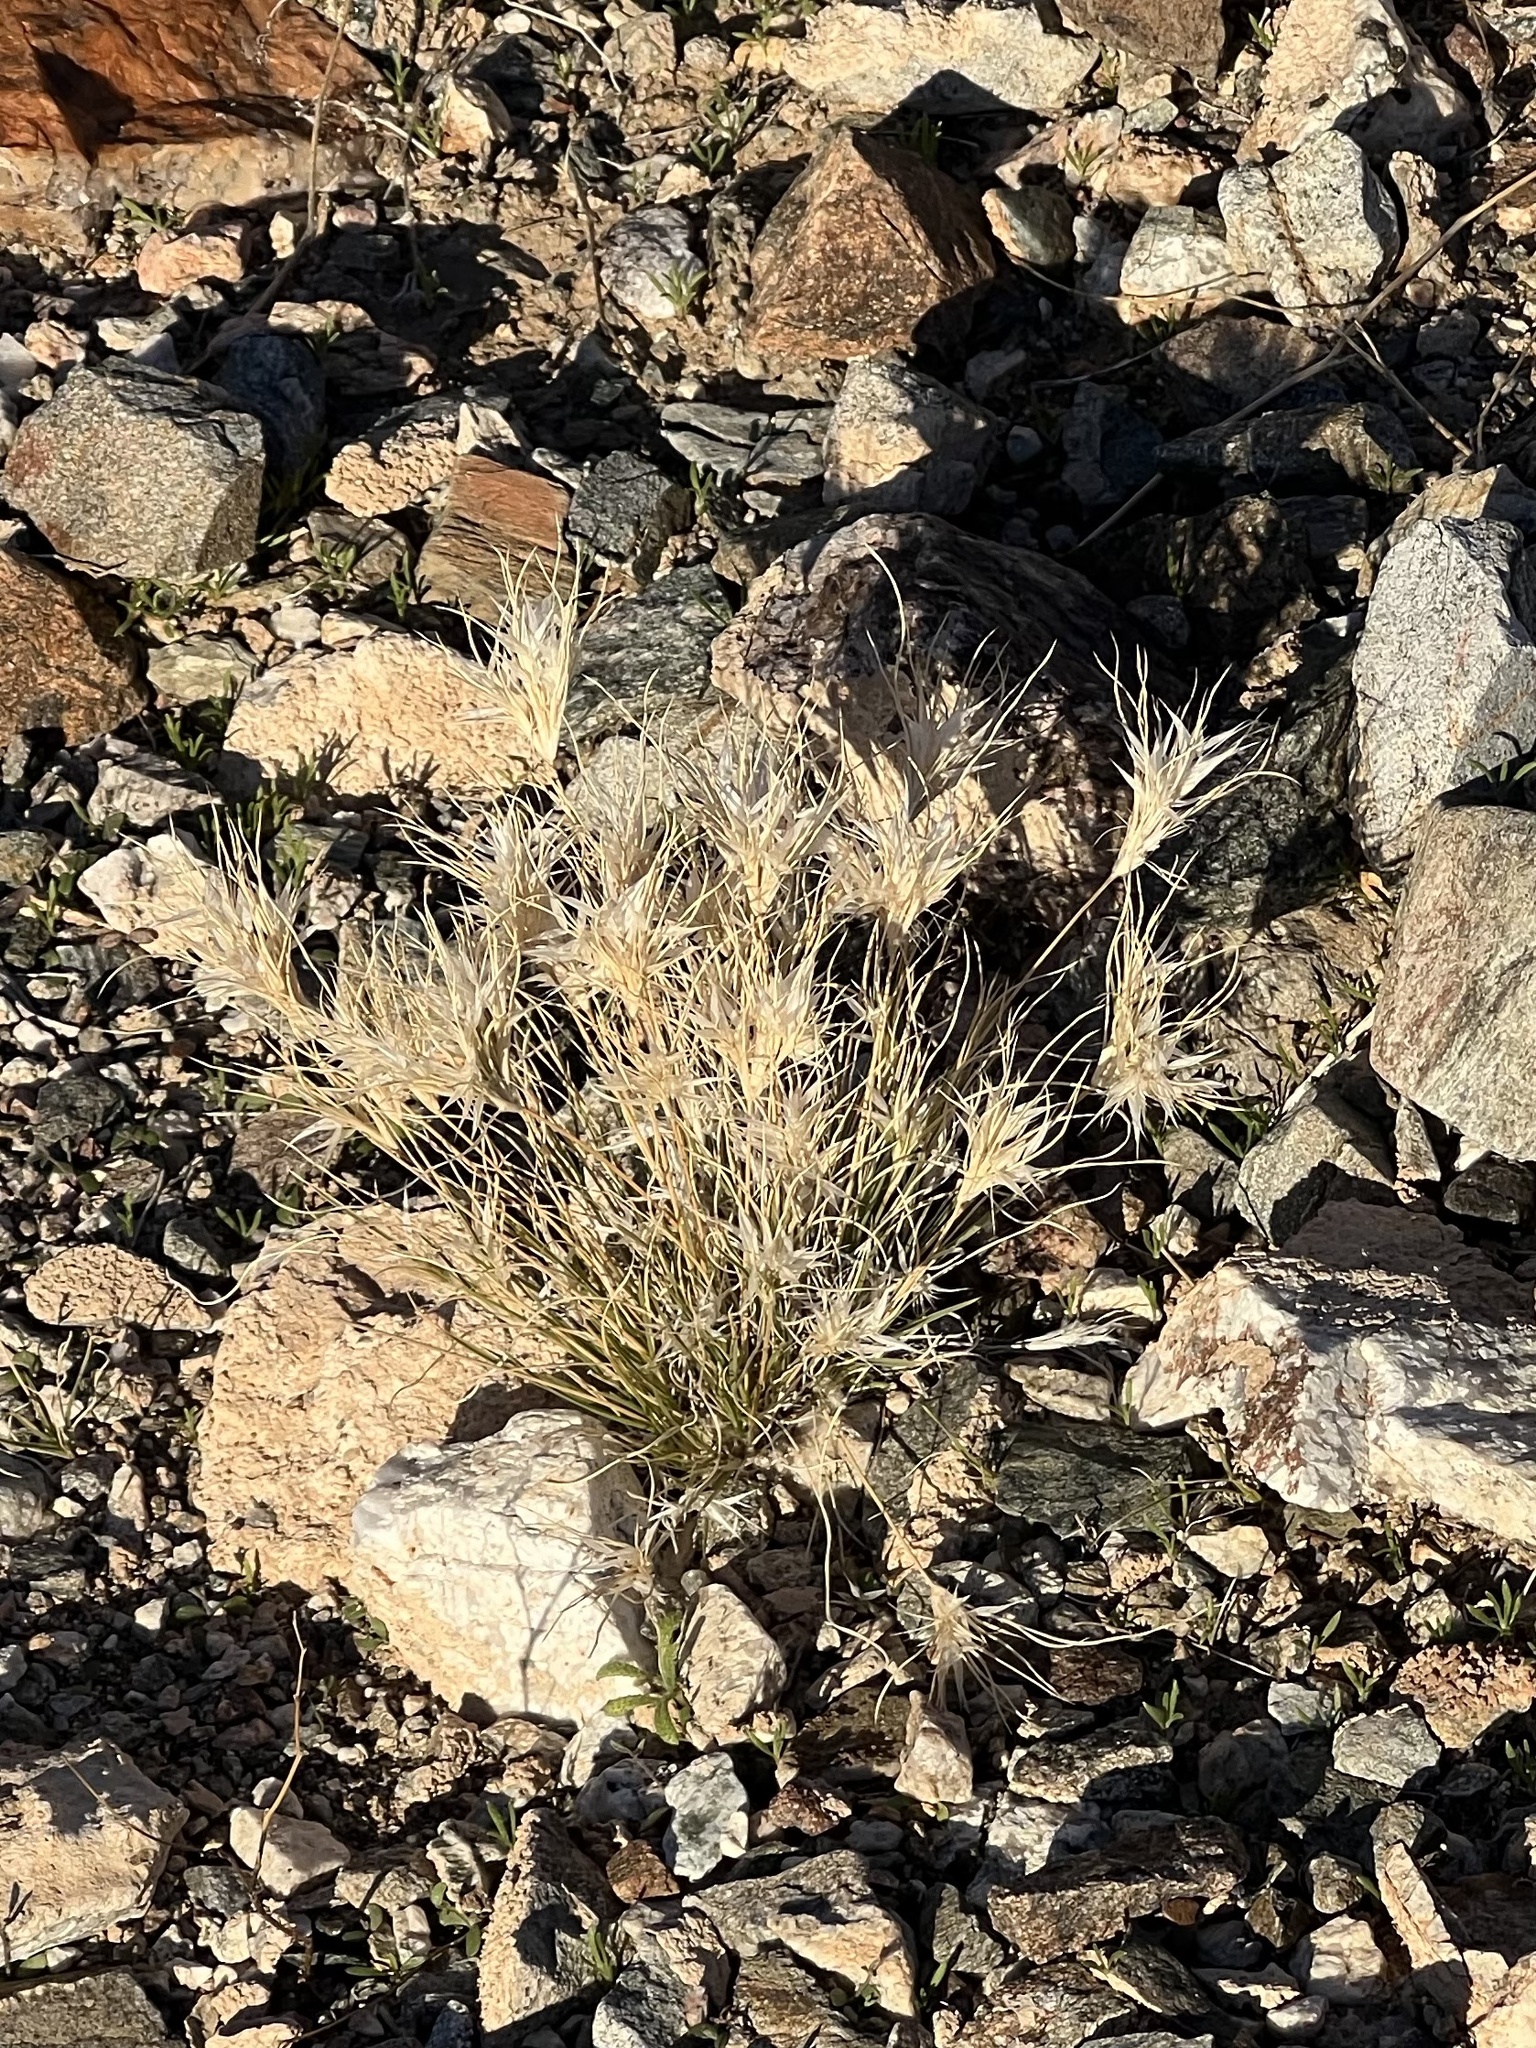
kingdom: Plantae
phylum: Tracheophyta
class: Liliopsida
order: Poales
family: Poaceae
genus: Dasyochloa
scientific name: Dasyochloa pulchella
